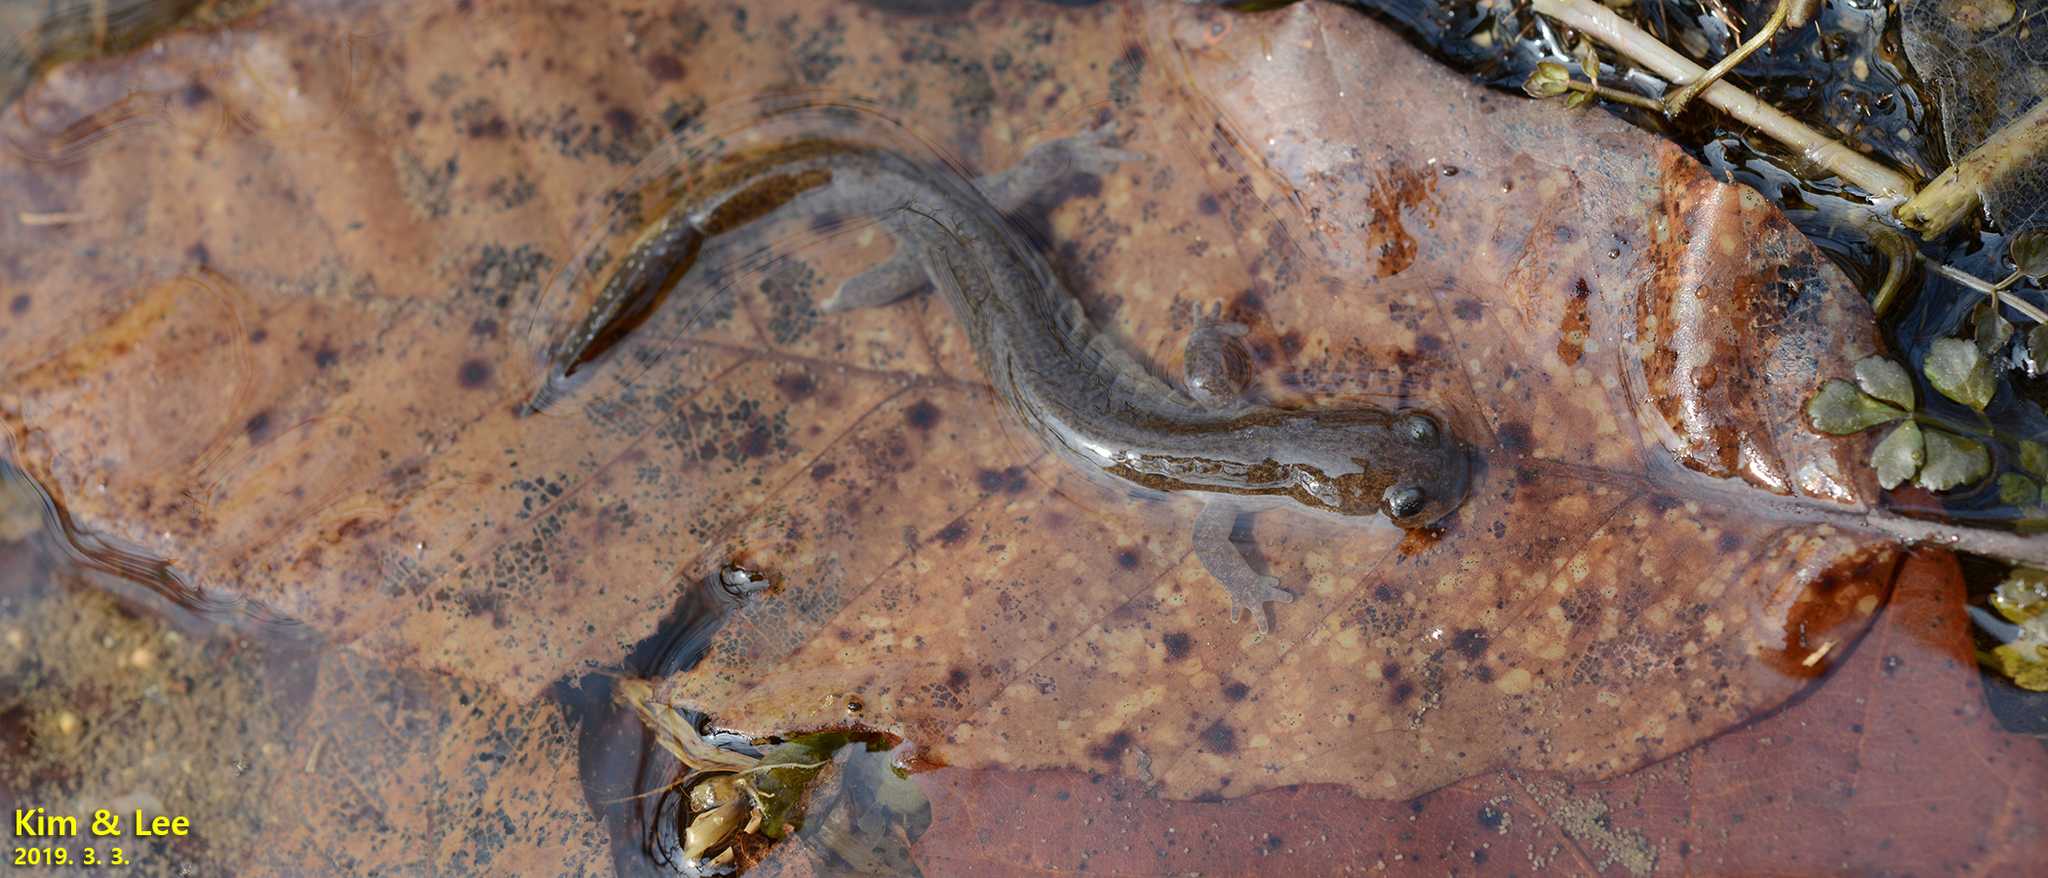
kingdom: Animalia
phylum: Chordata
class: Amphibia
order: Caudata
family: Hynobiidae
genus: Hynobius
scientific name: Hynobius unisacculus
